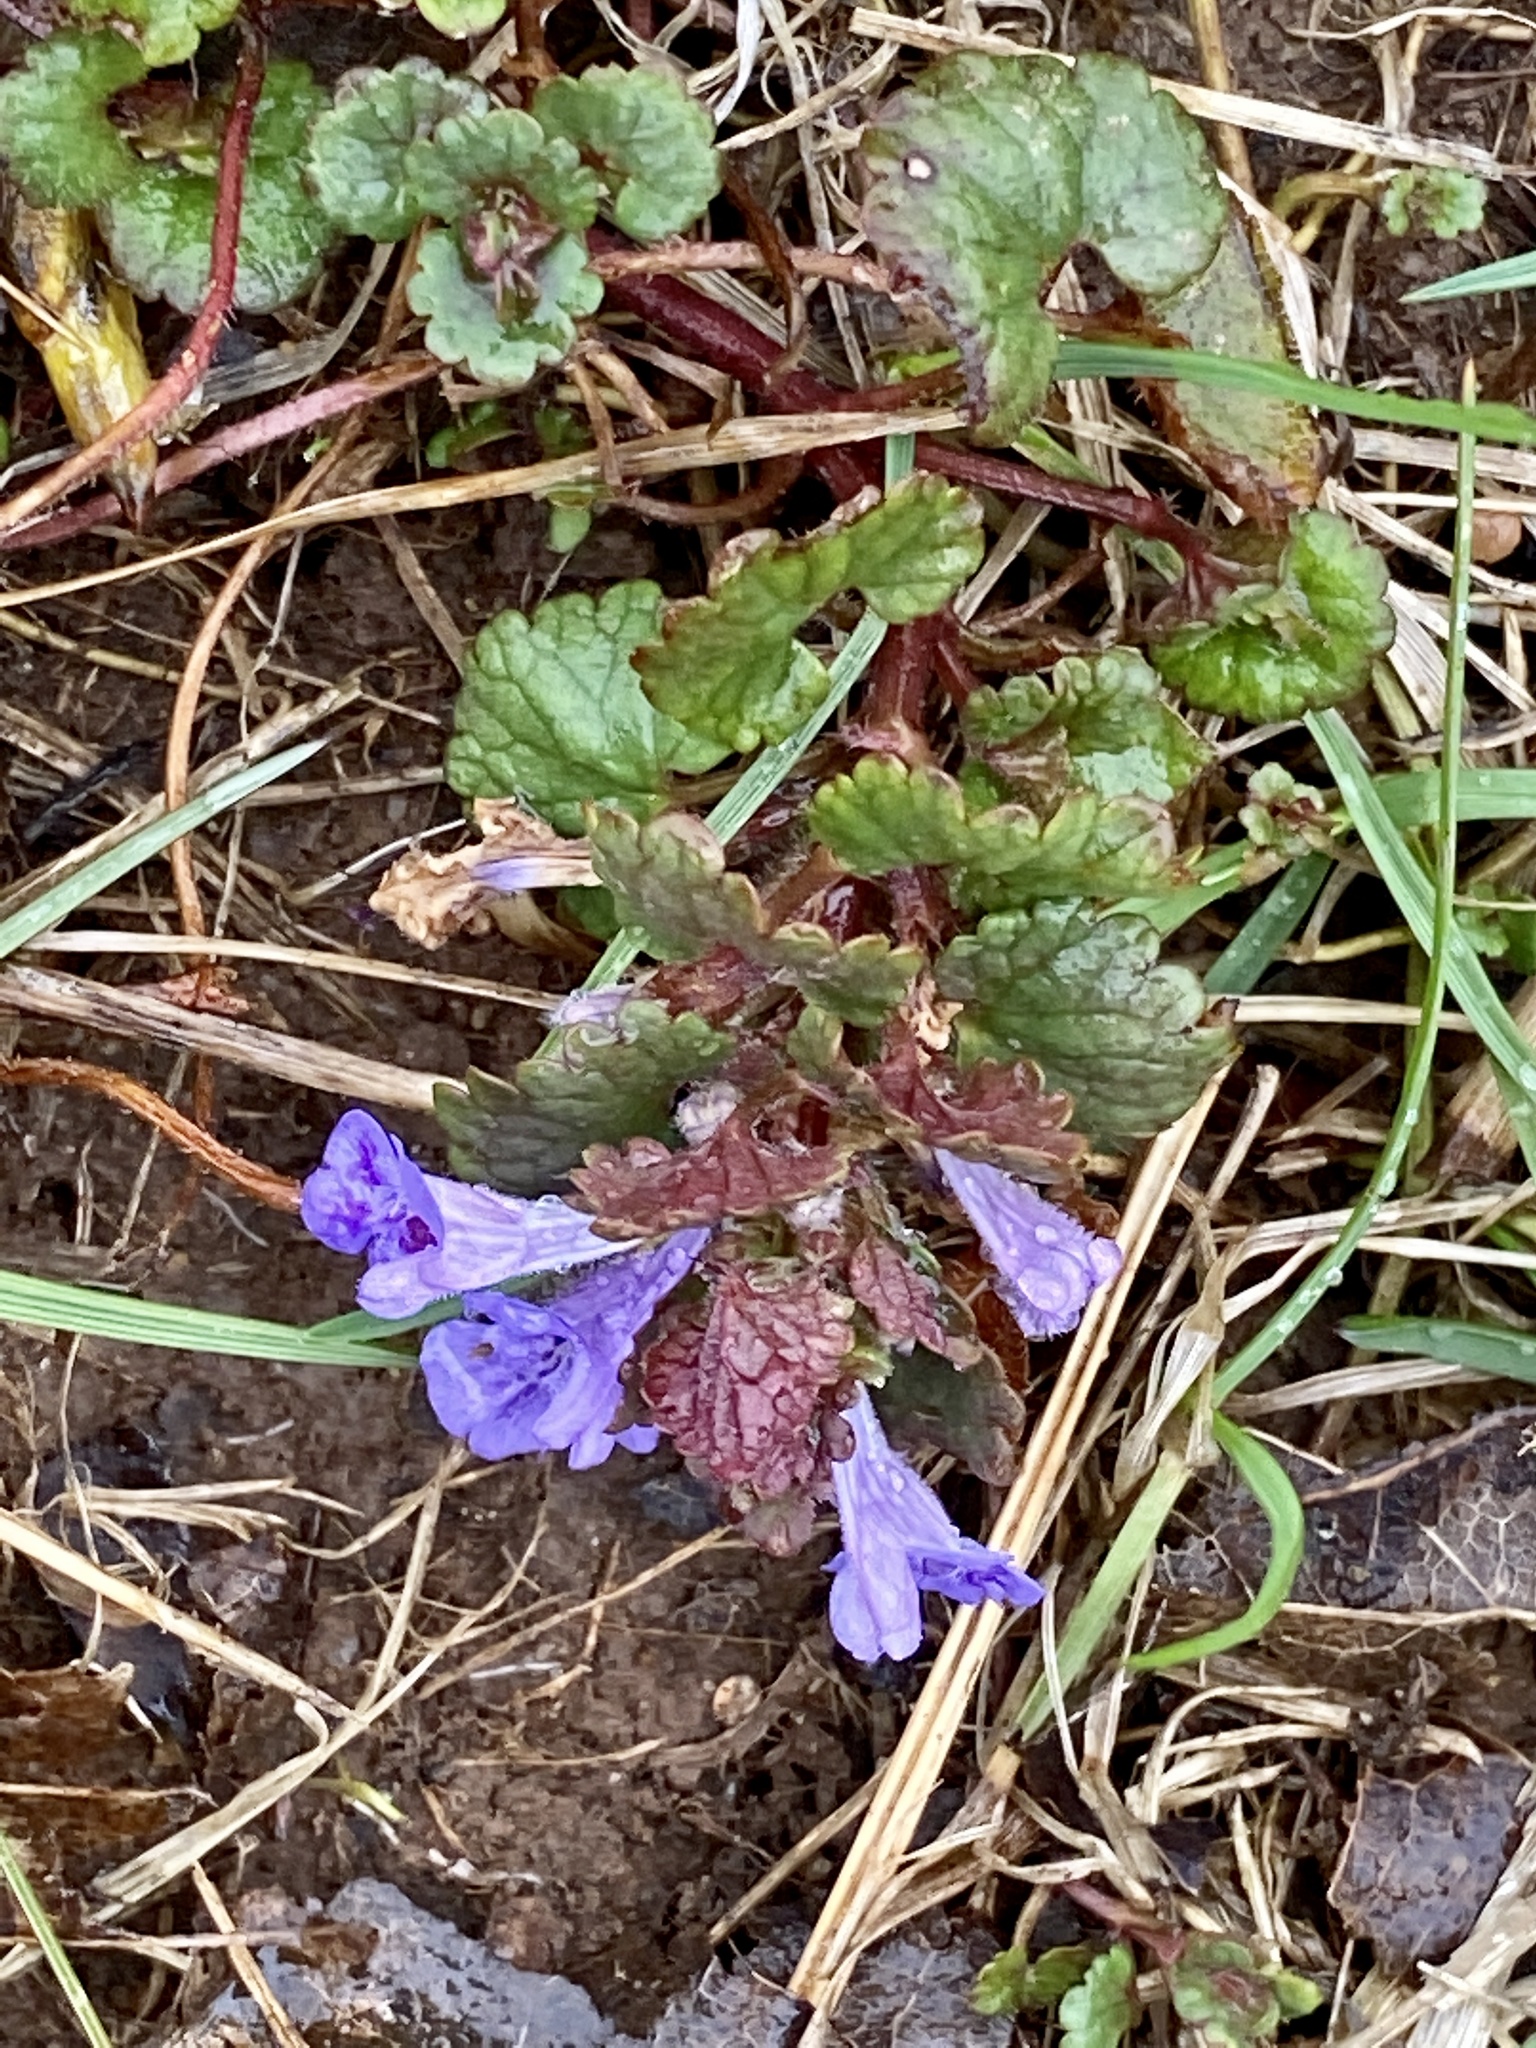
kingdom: Plantae
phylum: Tracheophyta
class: Magnoliopsida
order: Lamiales
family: Lamiaceae
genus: Glechoma
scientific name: Glechoma hederacea
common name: Ground ivy
